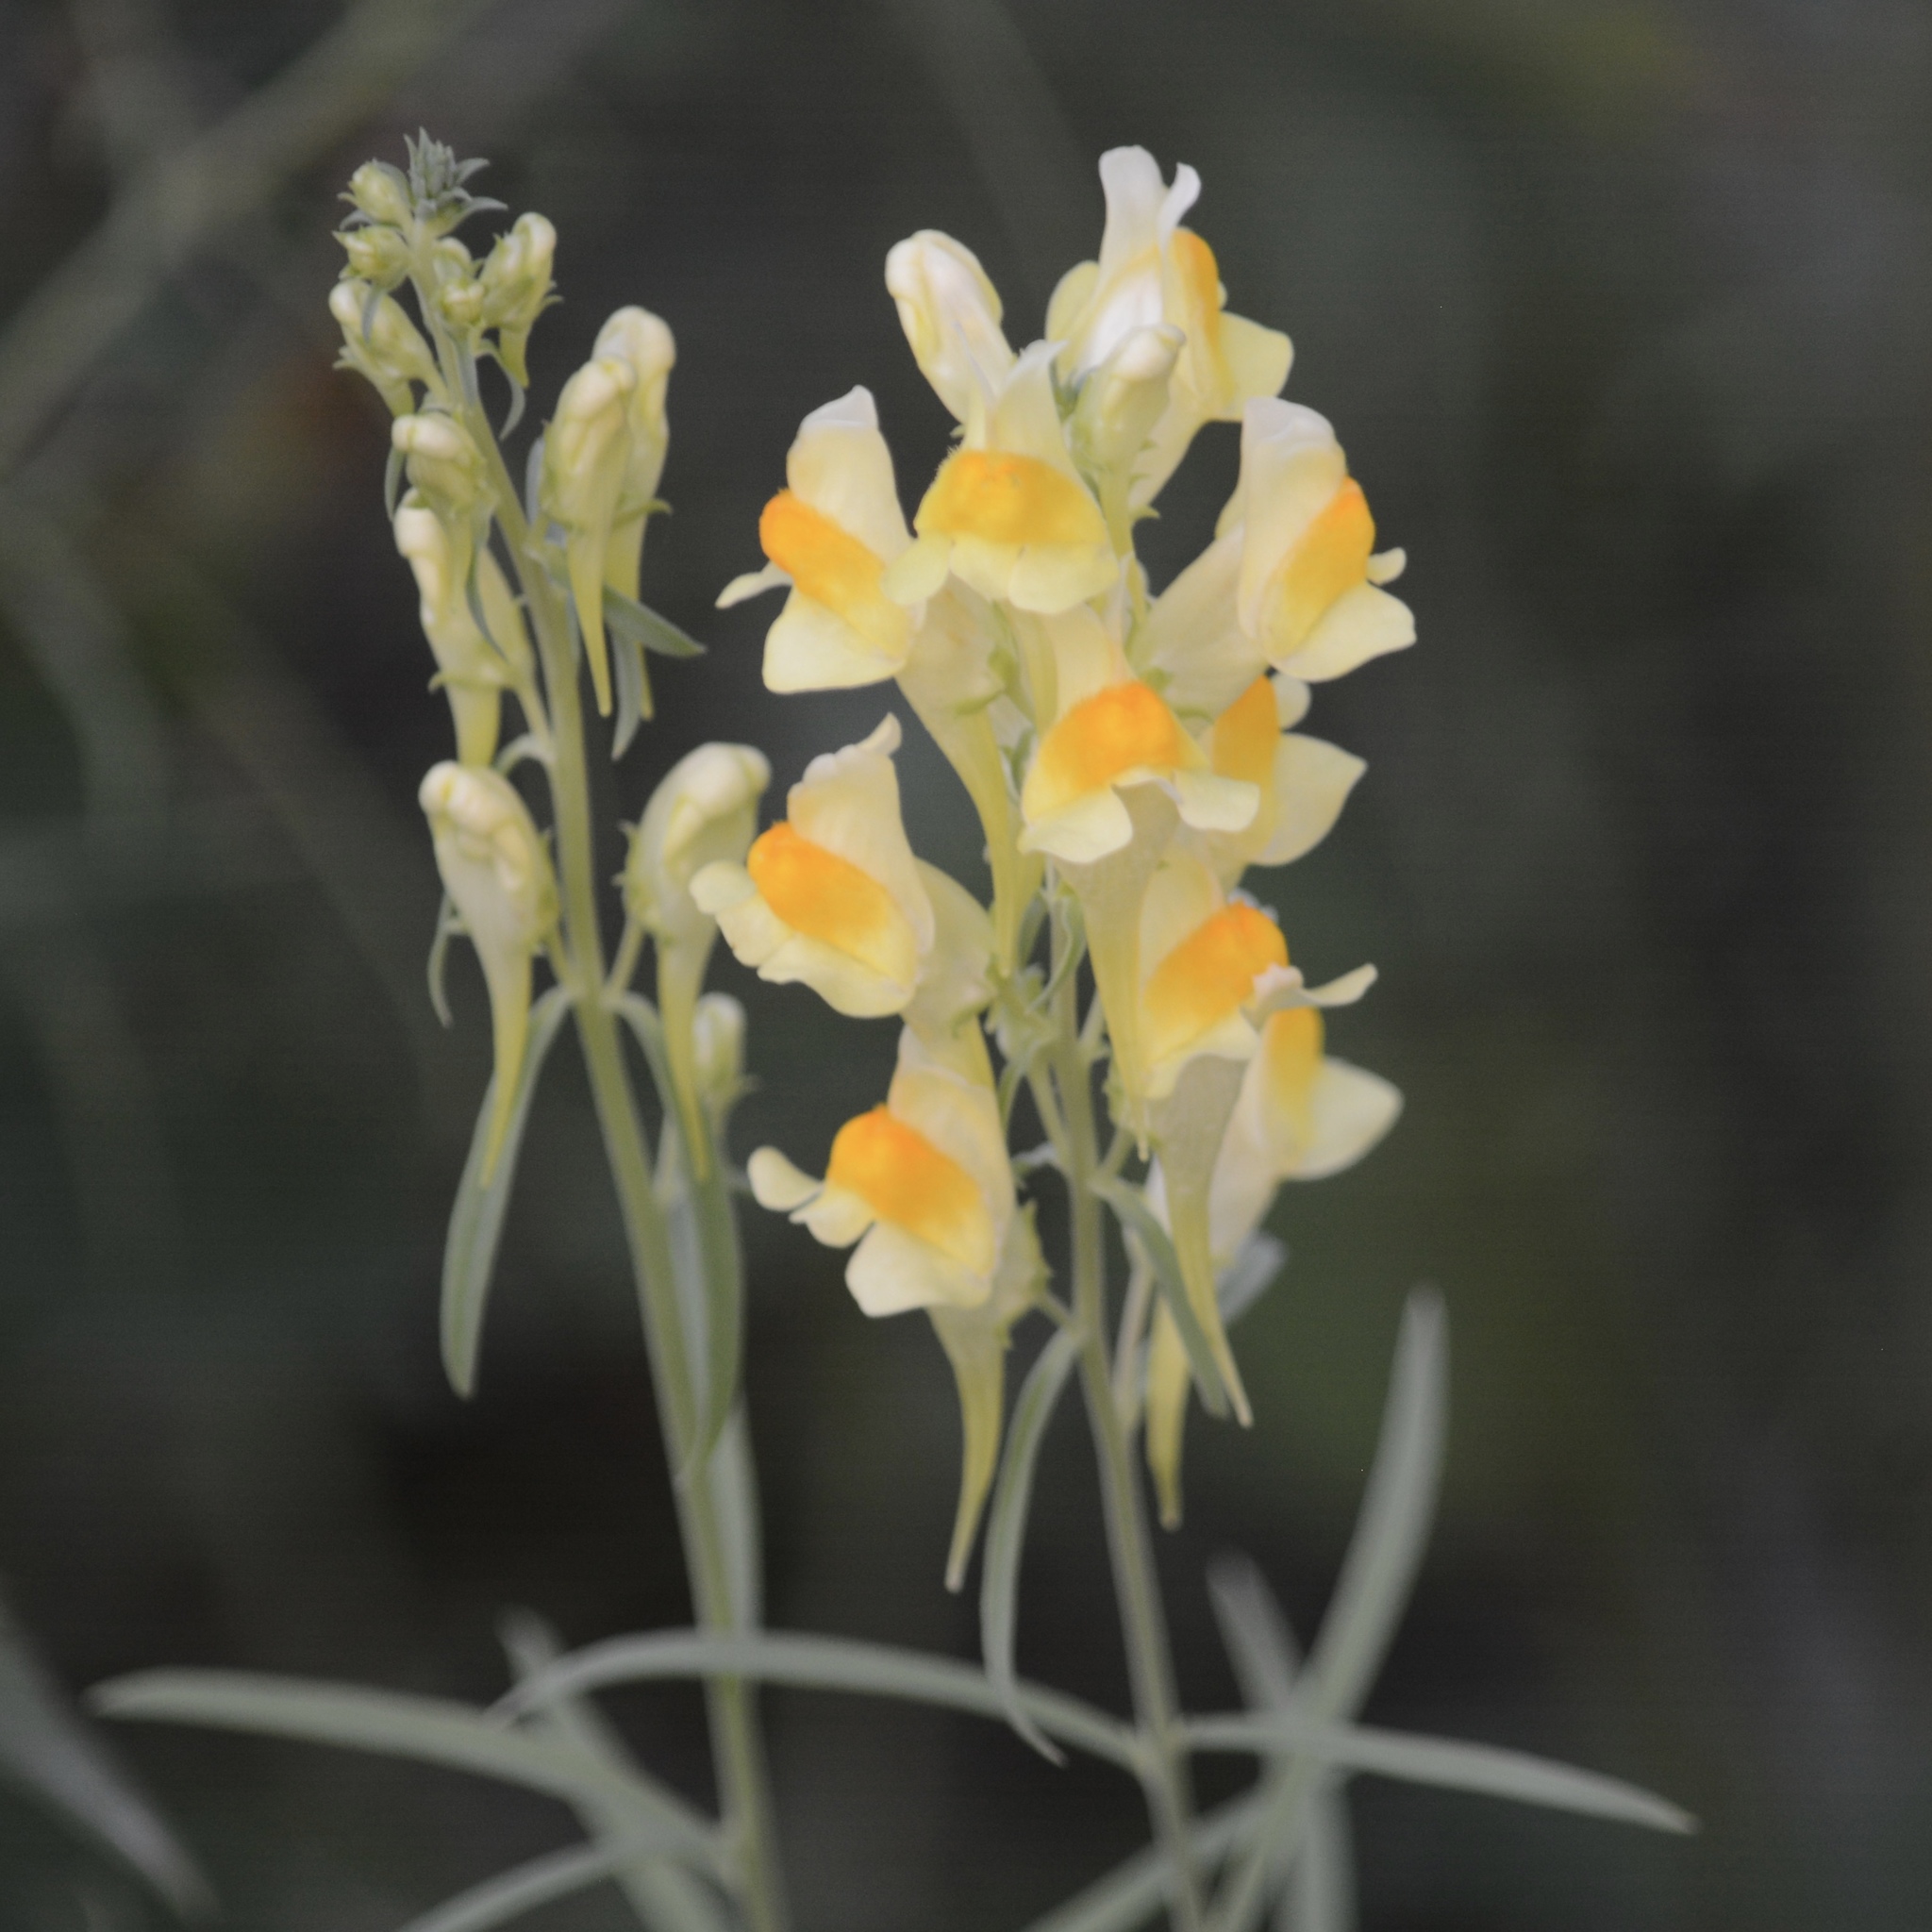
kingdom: Plantae
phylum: Tracheophyta
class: Magnoliopsida
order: Lamiales
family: Plantaginaceae
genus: Linaria
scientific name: Linaria vulgaris
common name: Butter and eggs
